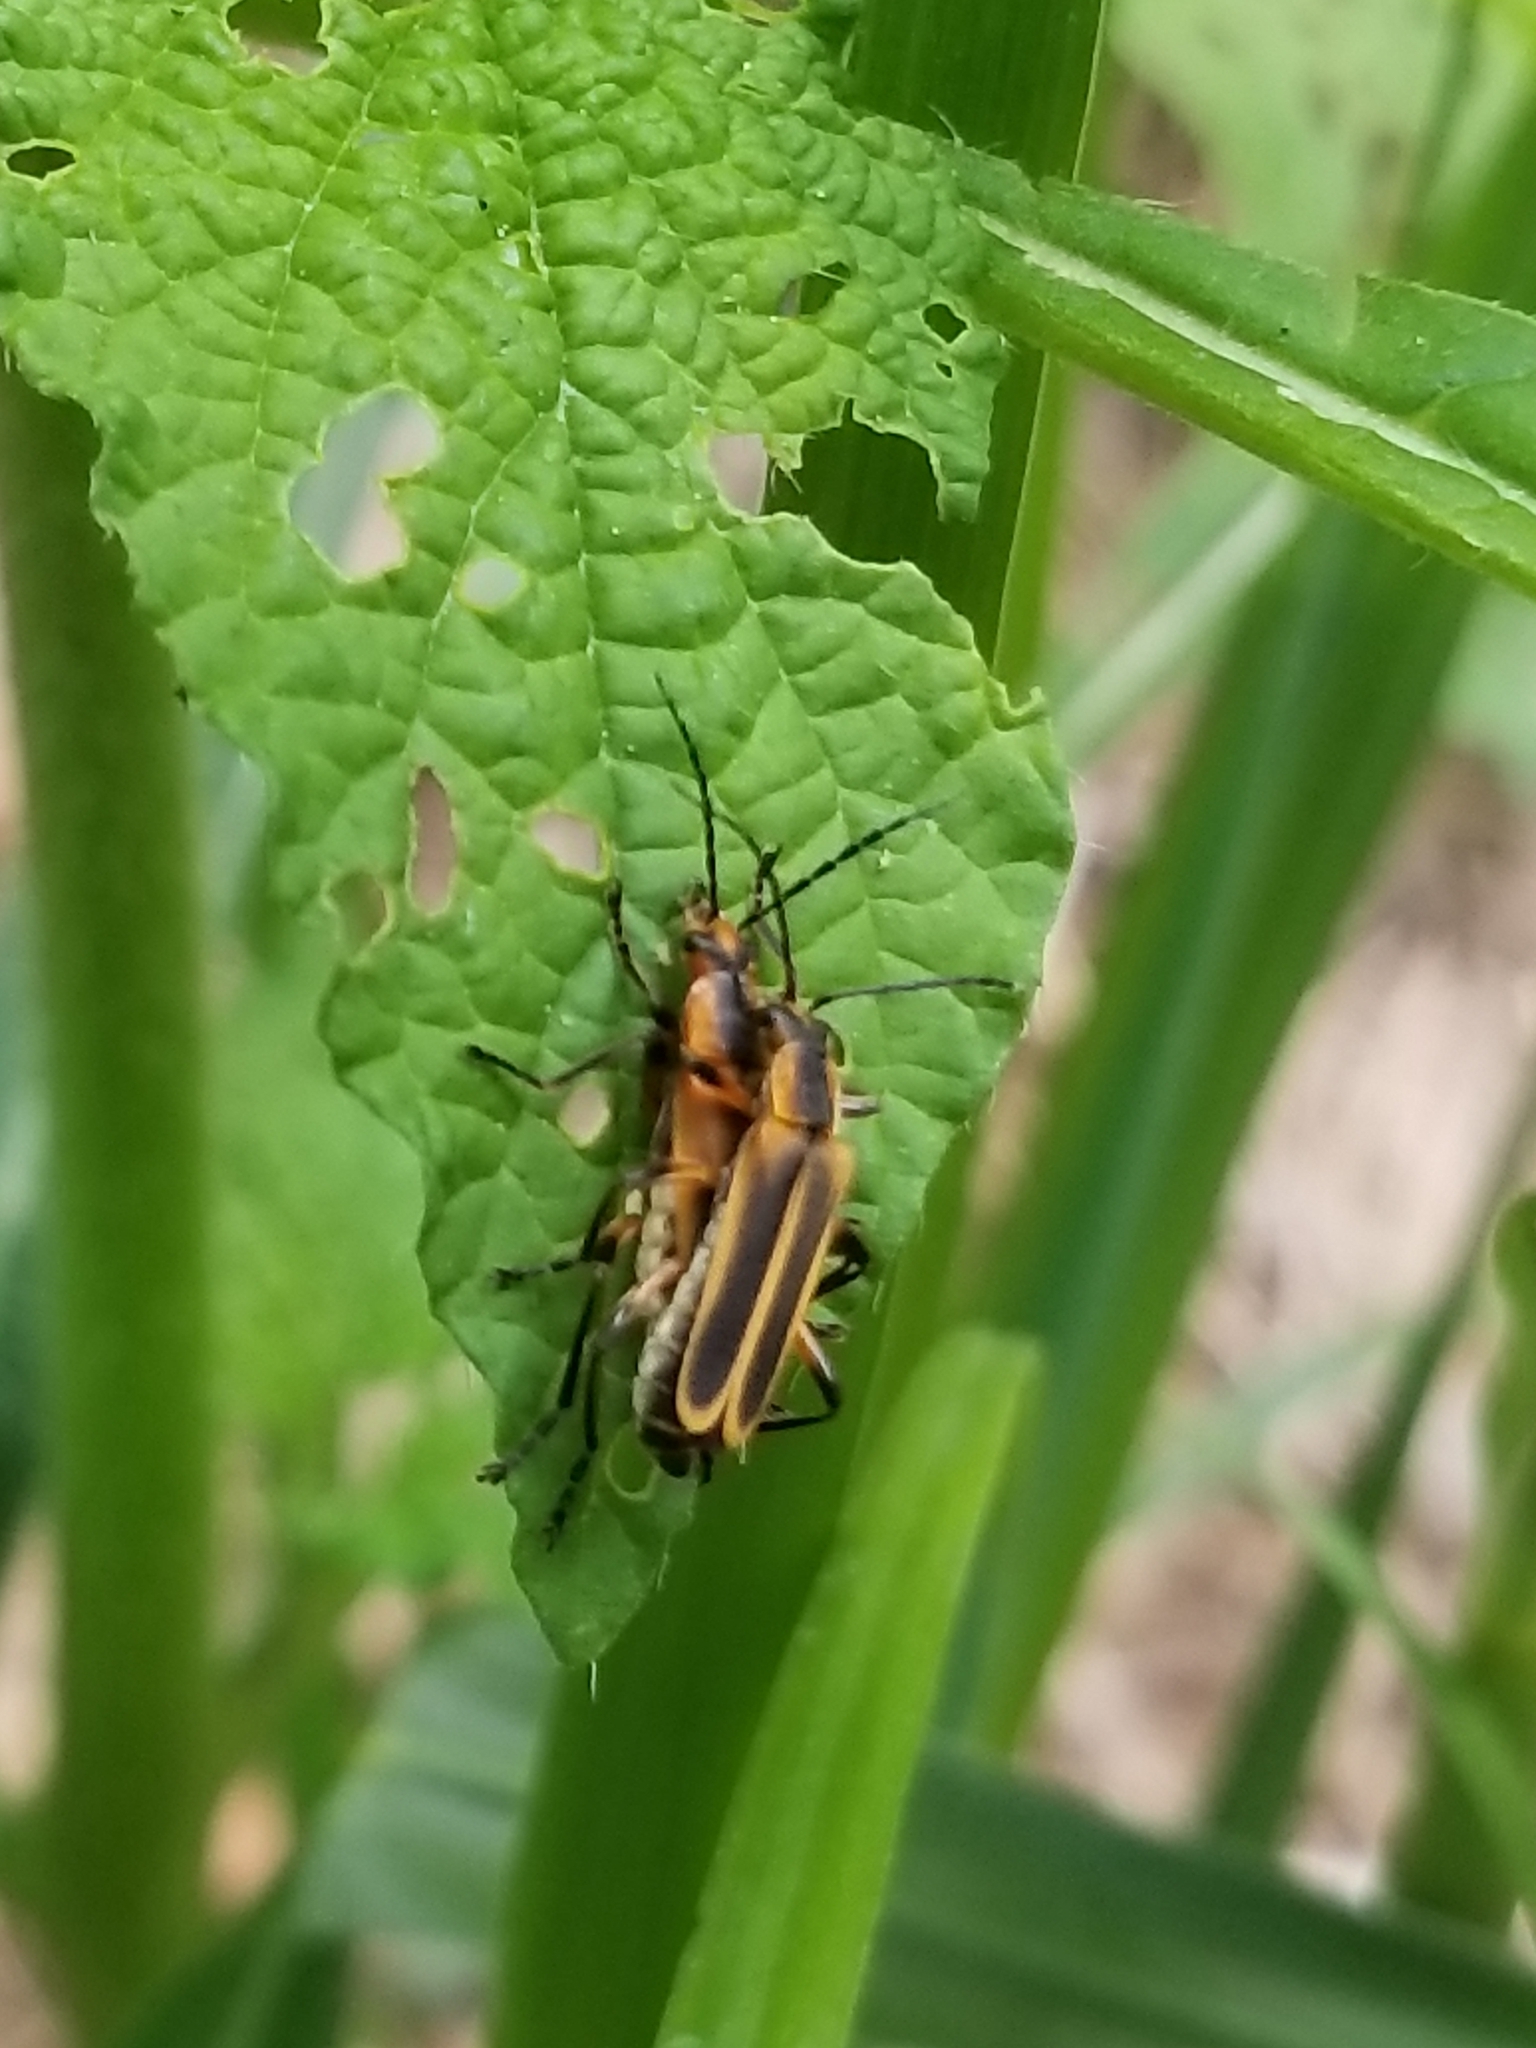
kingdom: Animalia
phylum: Arthropoda
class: Insecta
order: Coleoptera
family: Cantharidae
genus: Chauliognathus
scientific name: Chauliognathus marginatus
